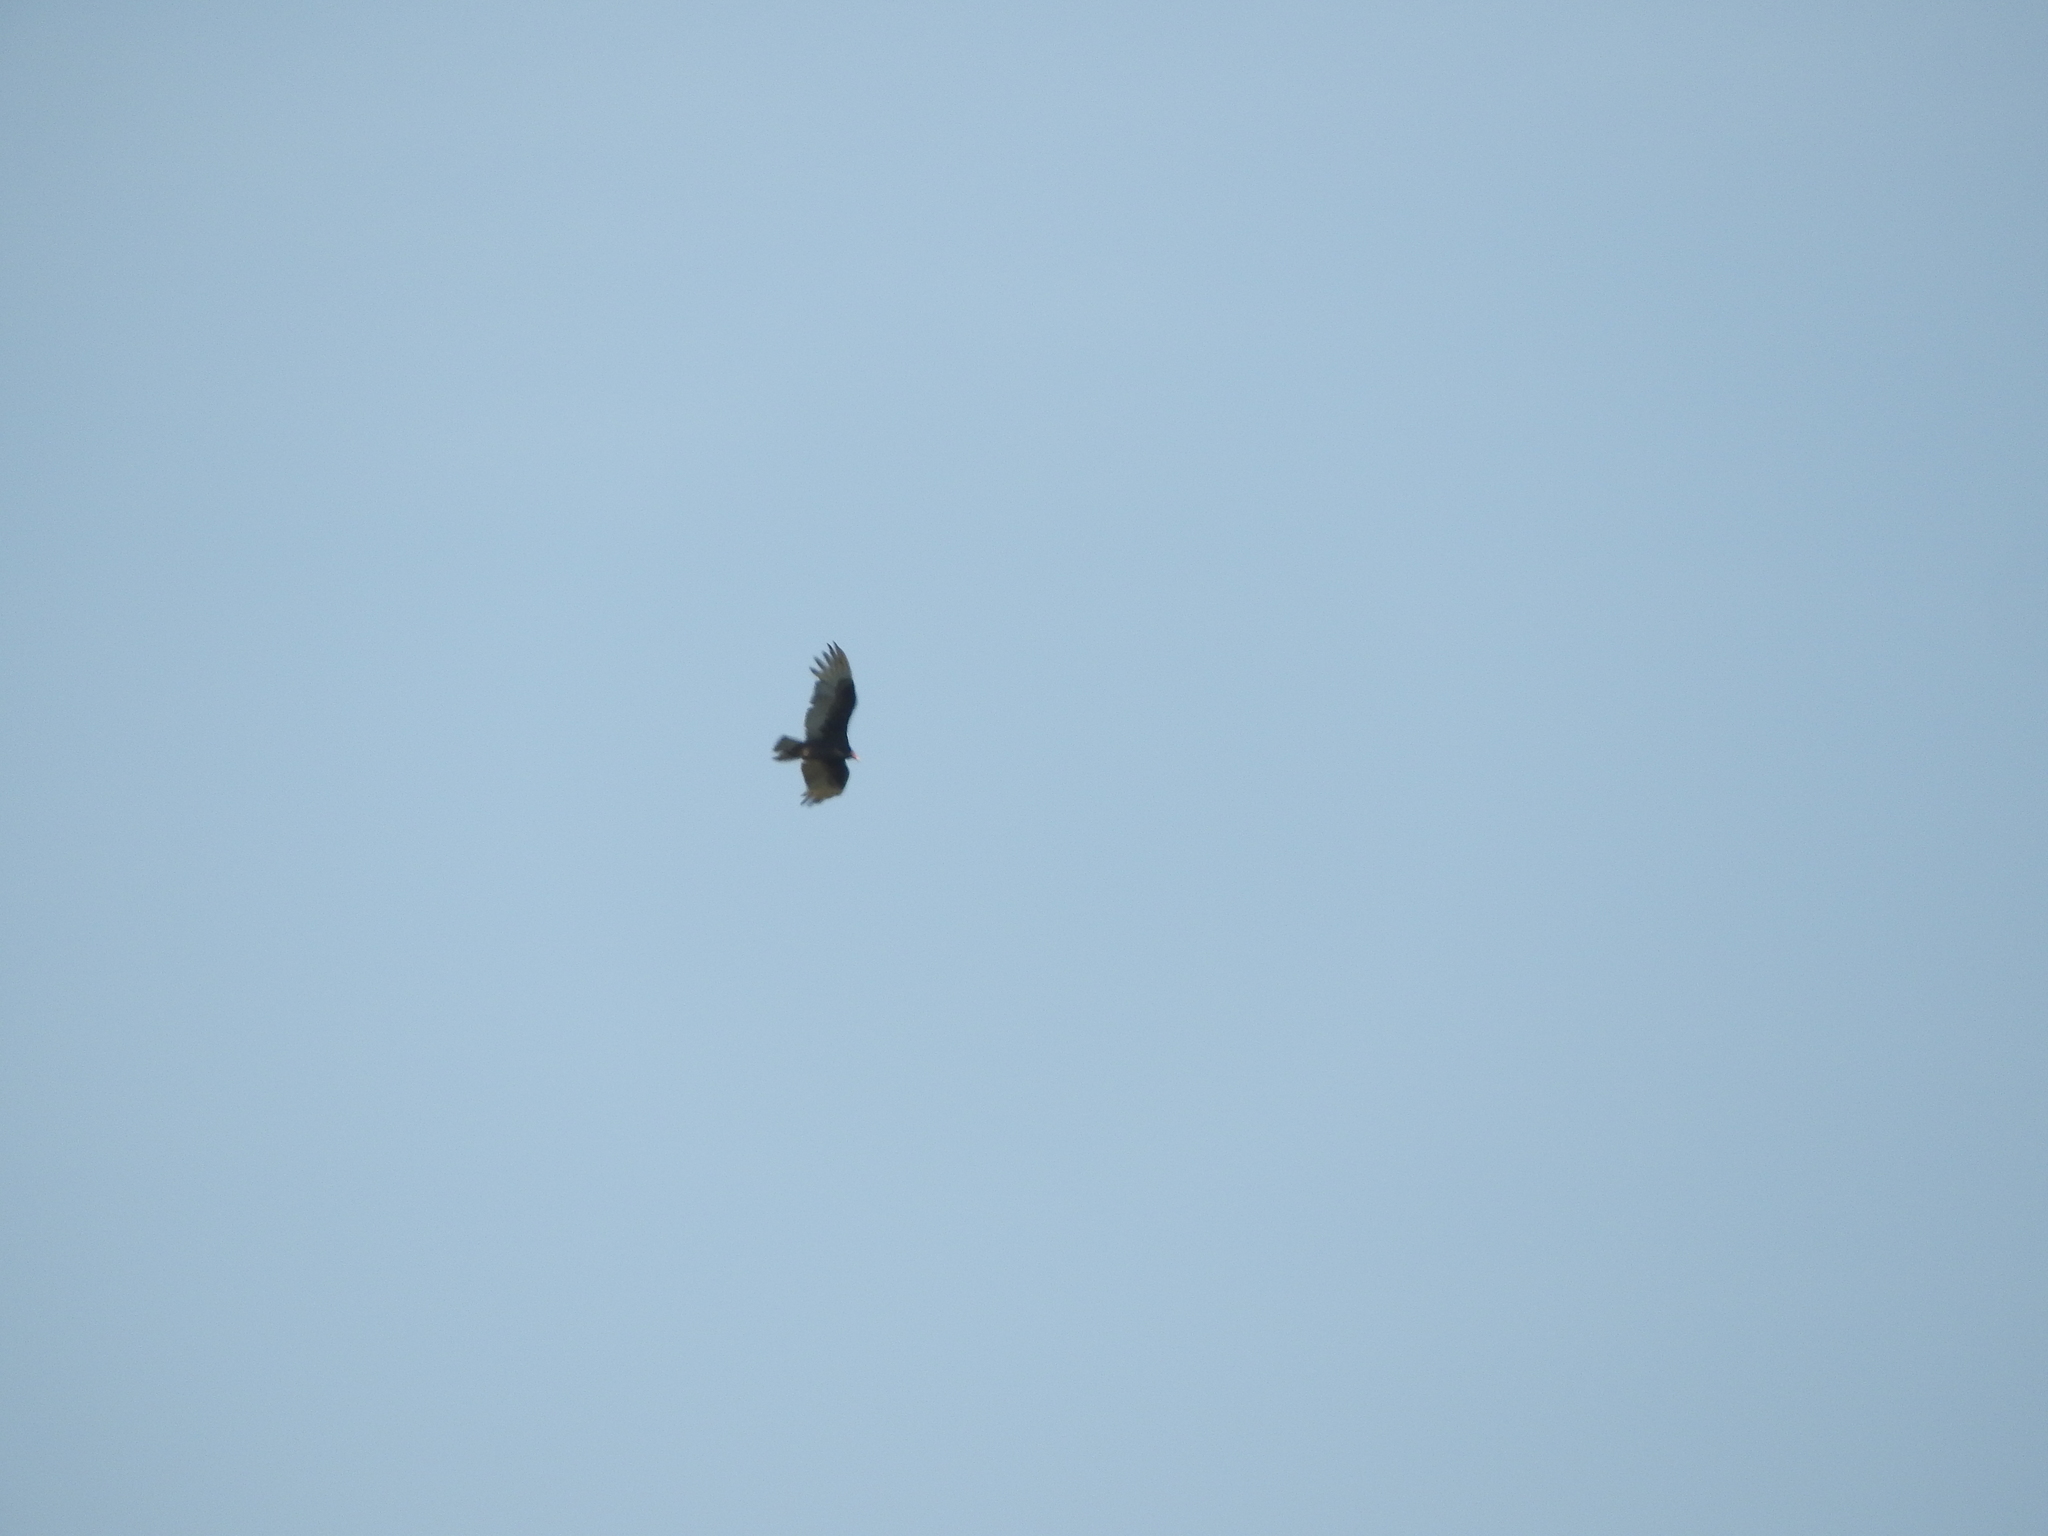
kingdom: Animalia
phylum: Chordata
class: Aves
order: Accipitriformes
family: Cathartidae
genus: Cathartes
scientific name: Cathartes aura
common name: Turkey vulture
